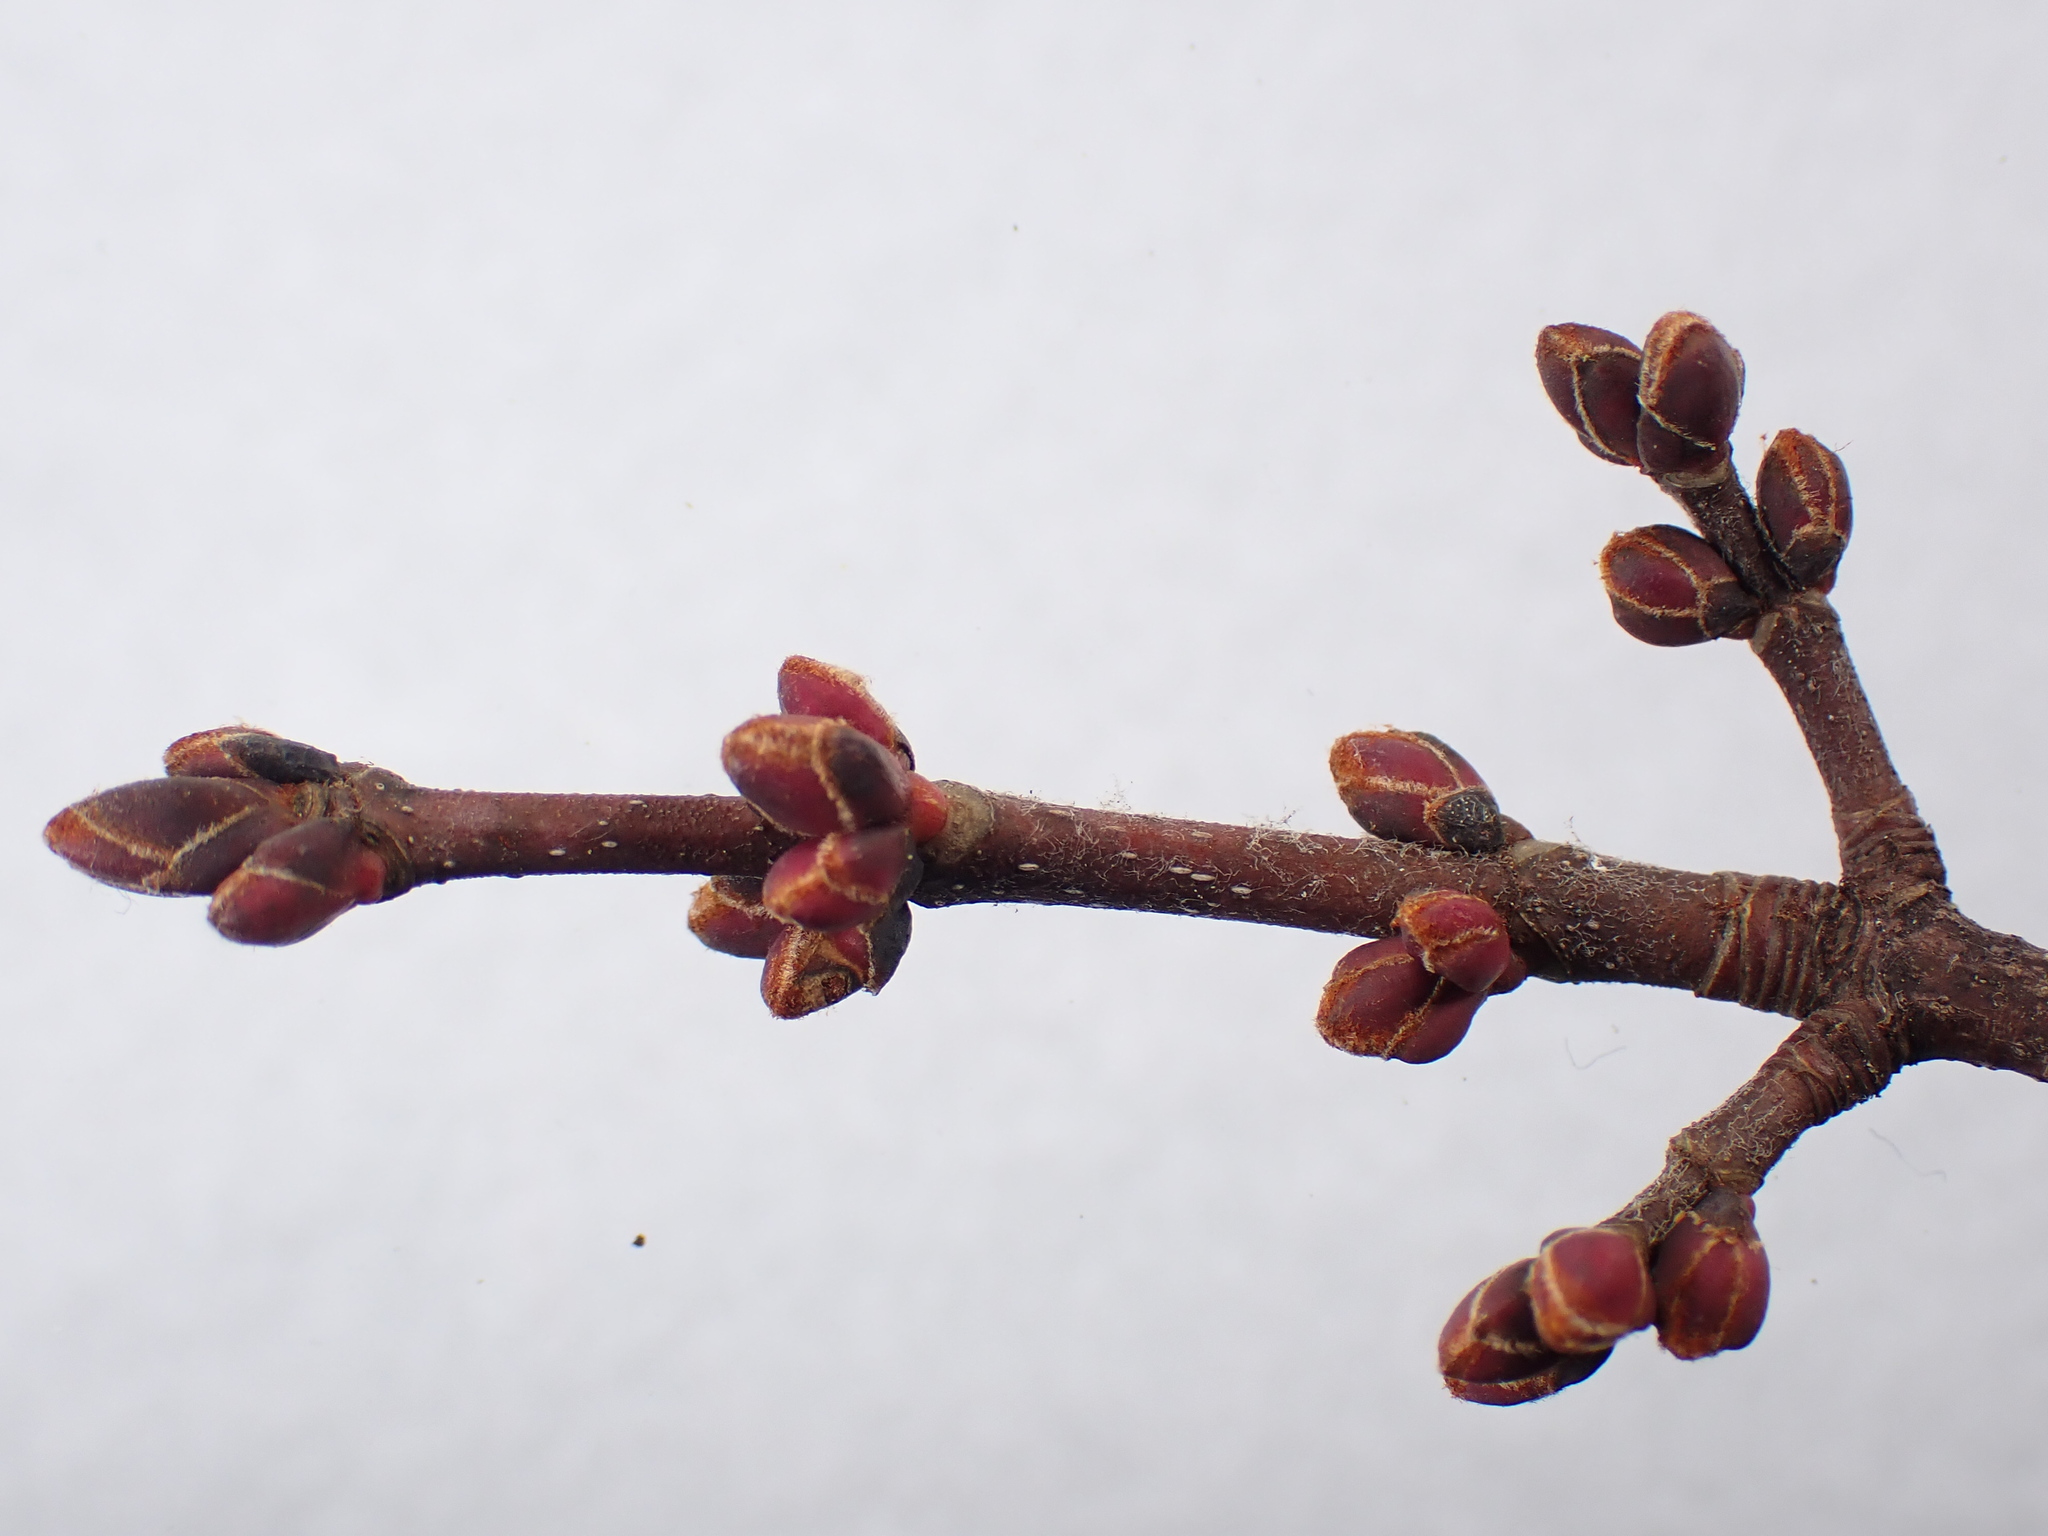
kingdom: Plantae
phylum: Tracheophyta
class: Magnoliopsida
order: Sapindales
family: Sapindaceae
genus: Acer
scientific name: Acer rubrum
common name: Red maple
